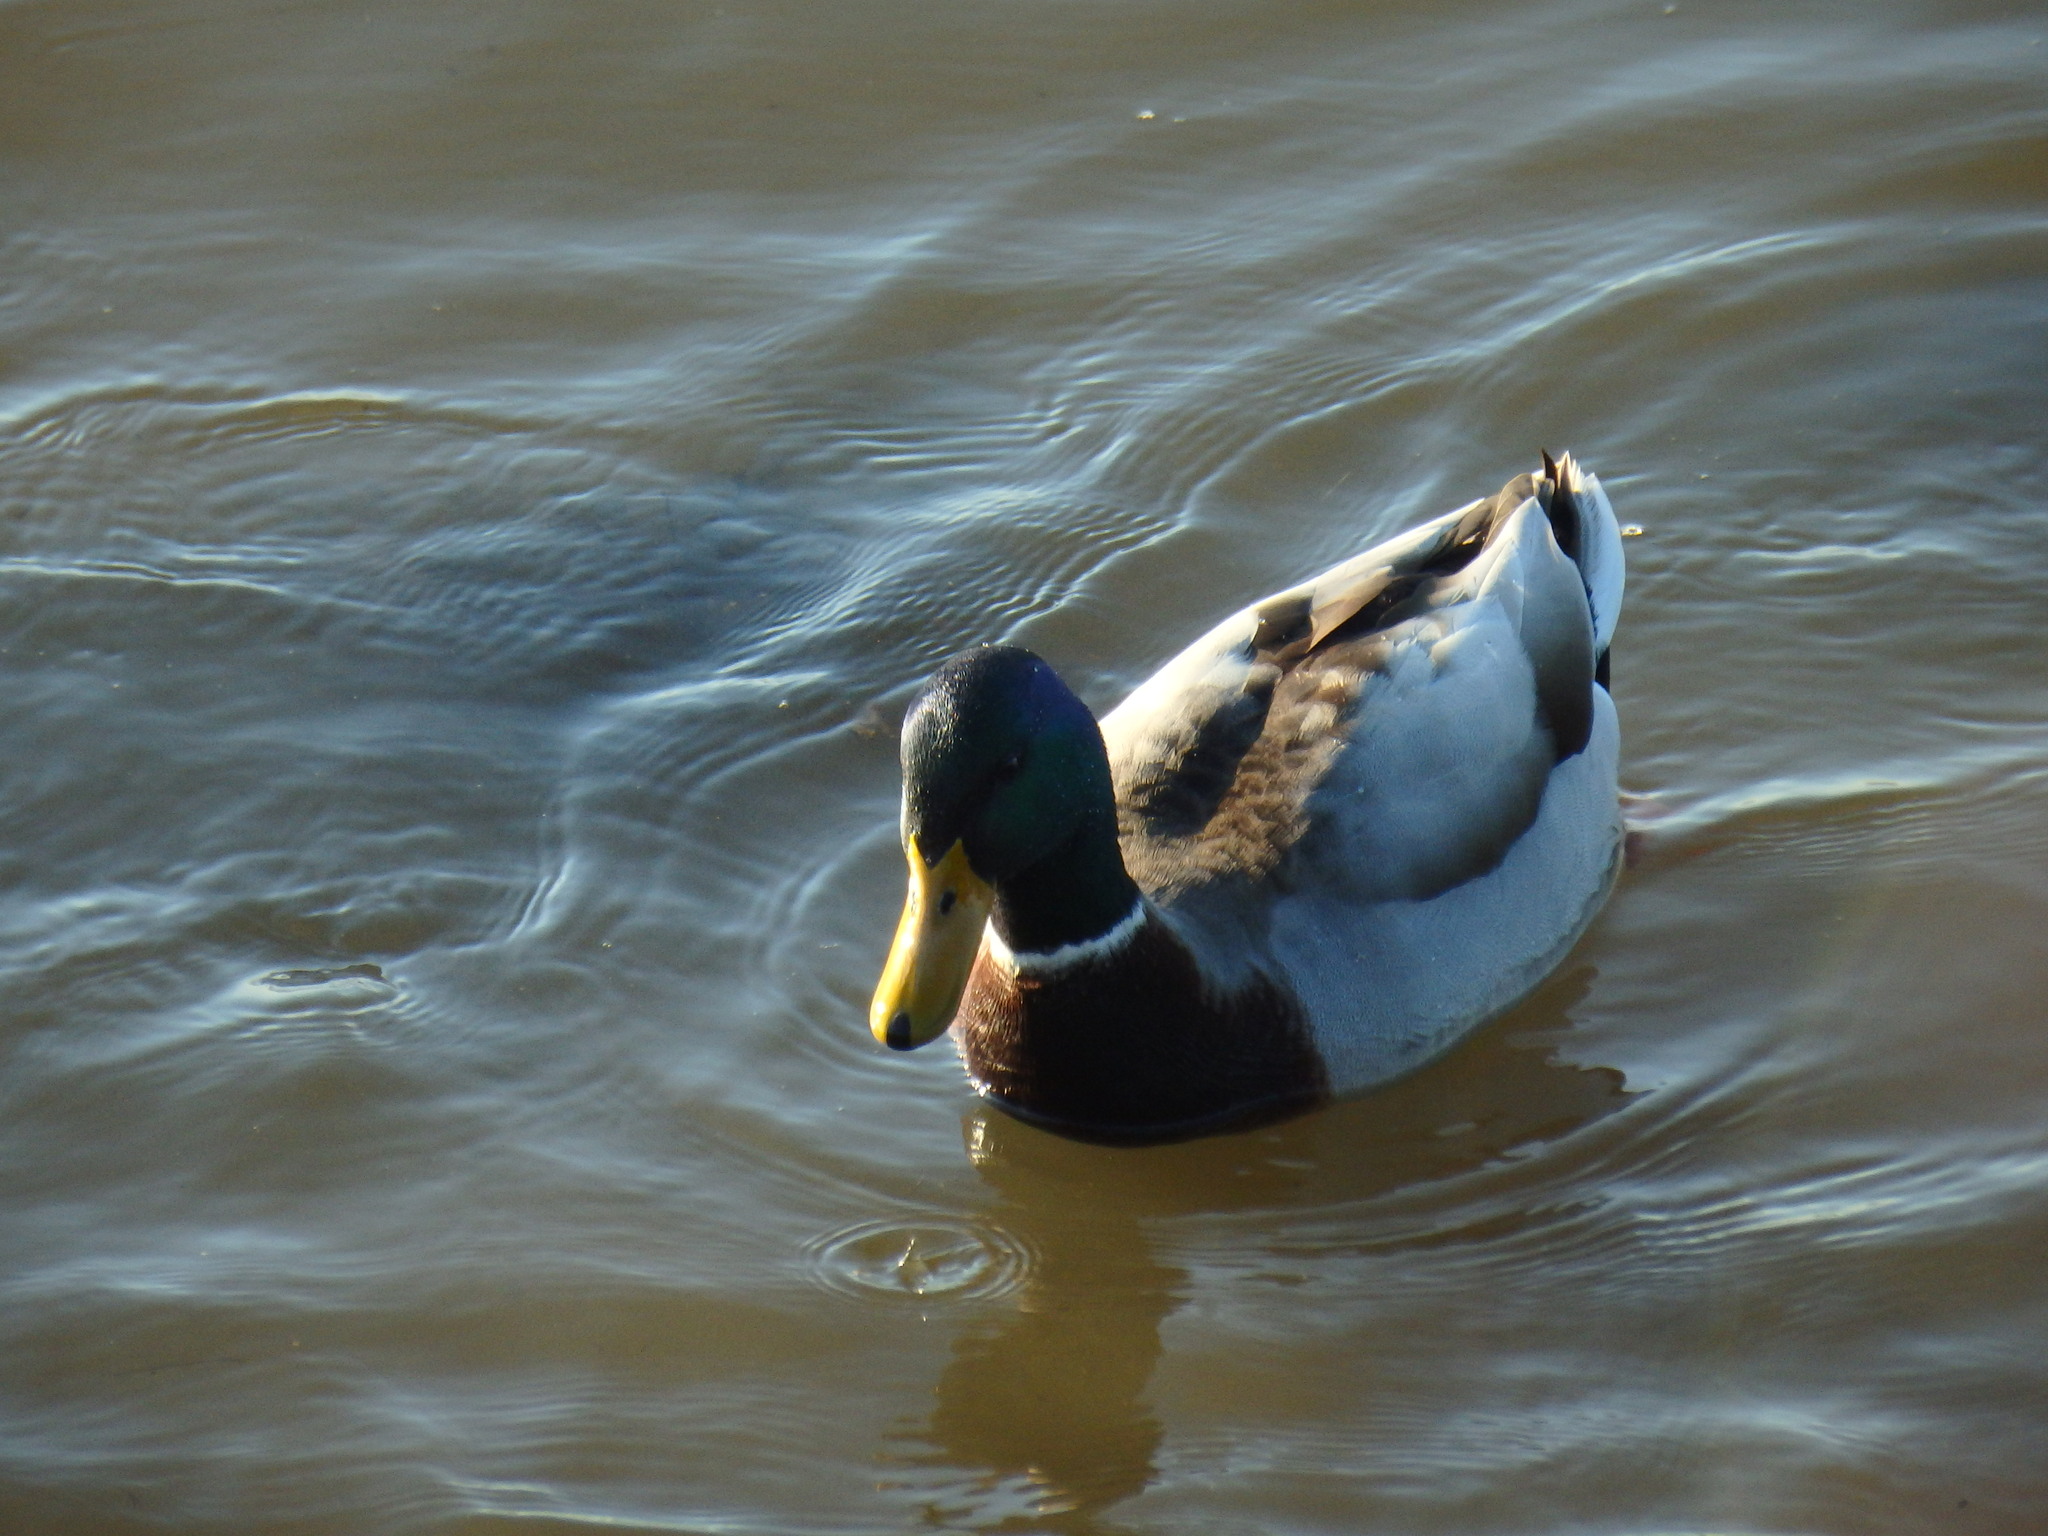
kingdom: Animalia
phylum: Chordata
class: Aves
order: Anseriformes
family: Anatidae
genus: Anas
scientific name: Anas platyrhynchos
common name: Mallard
